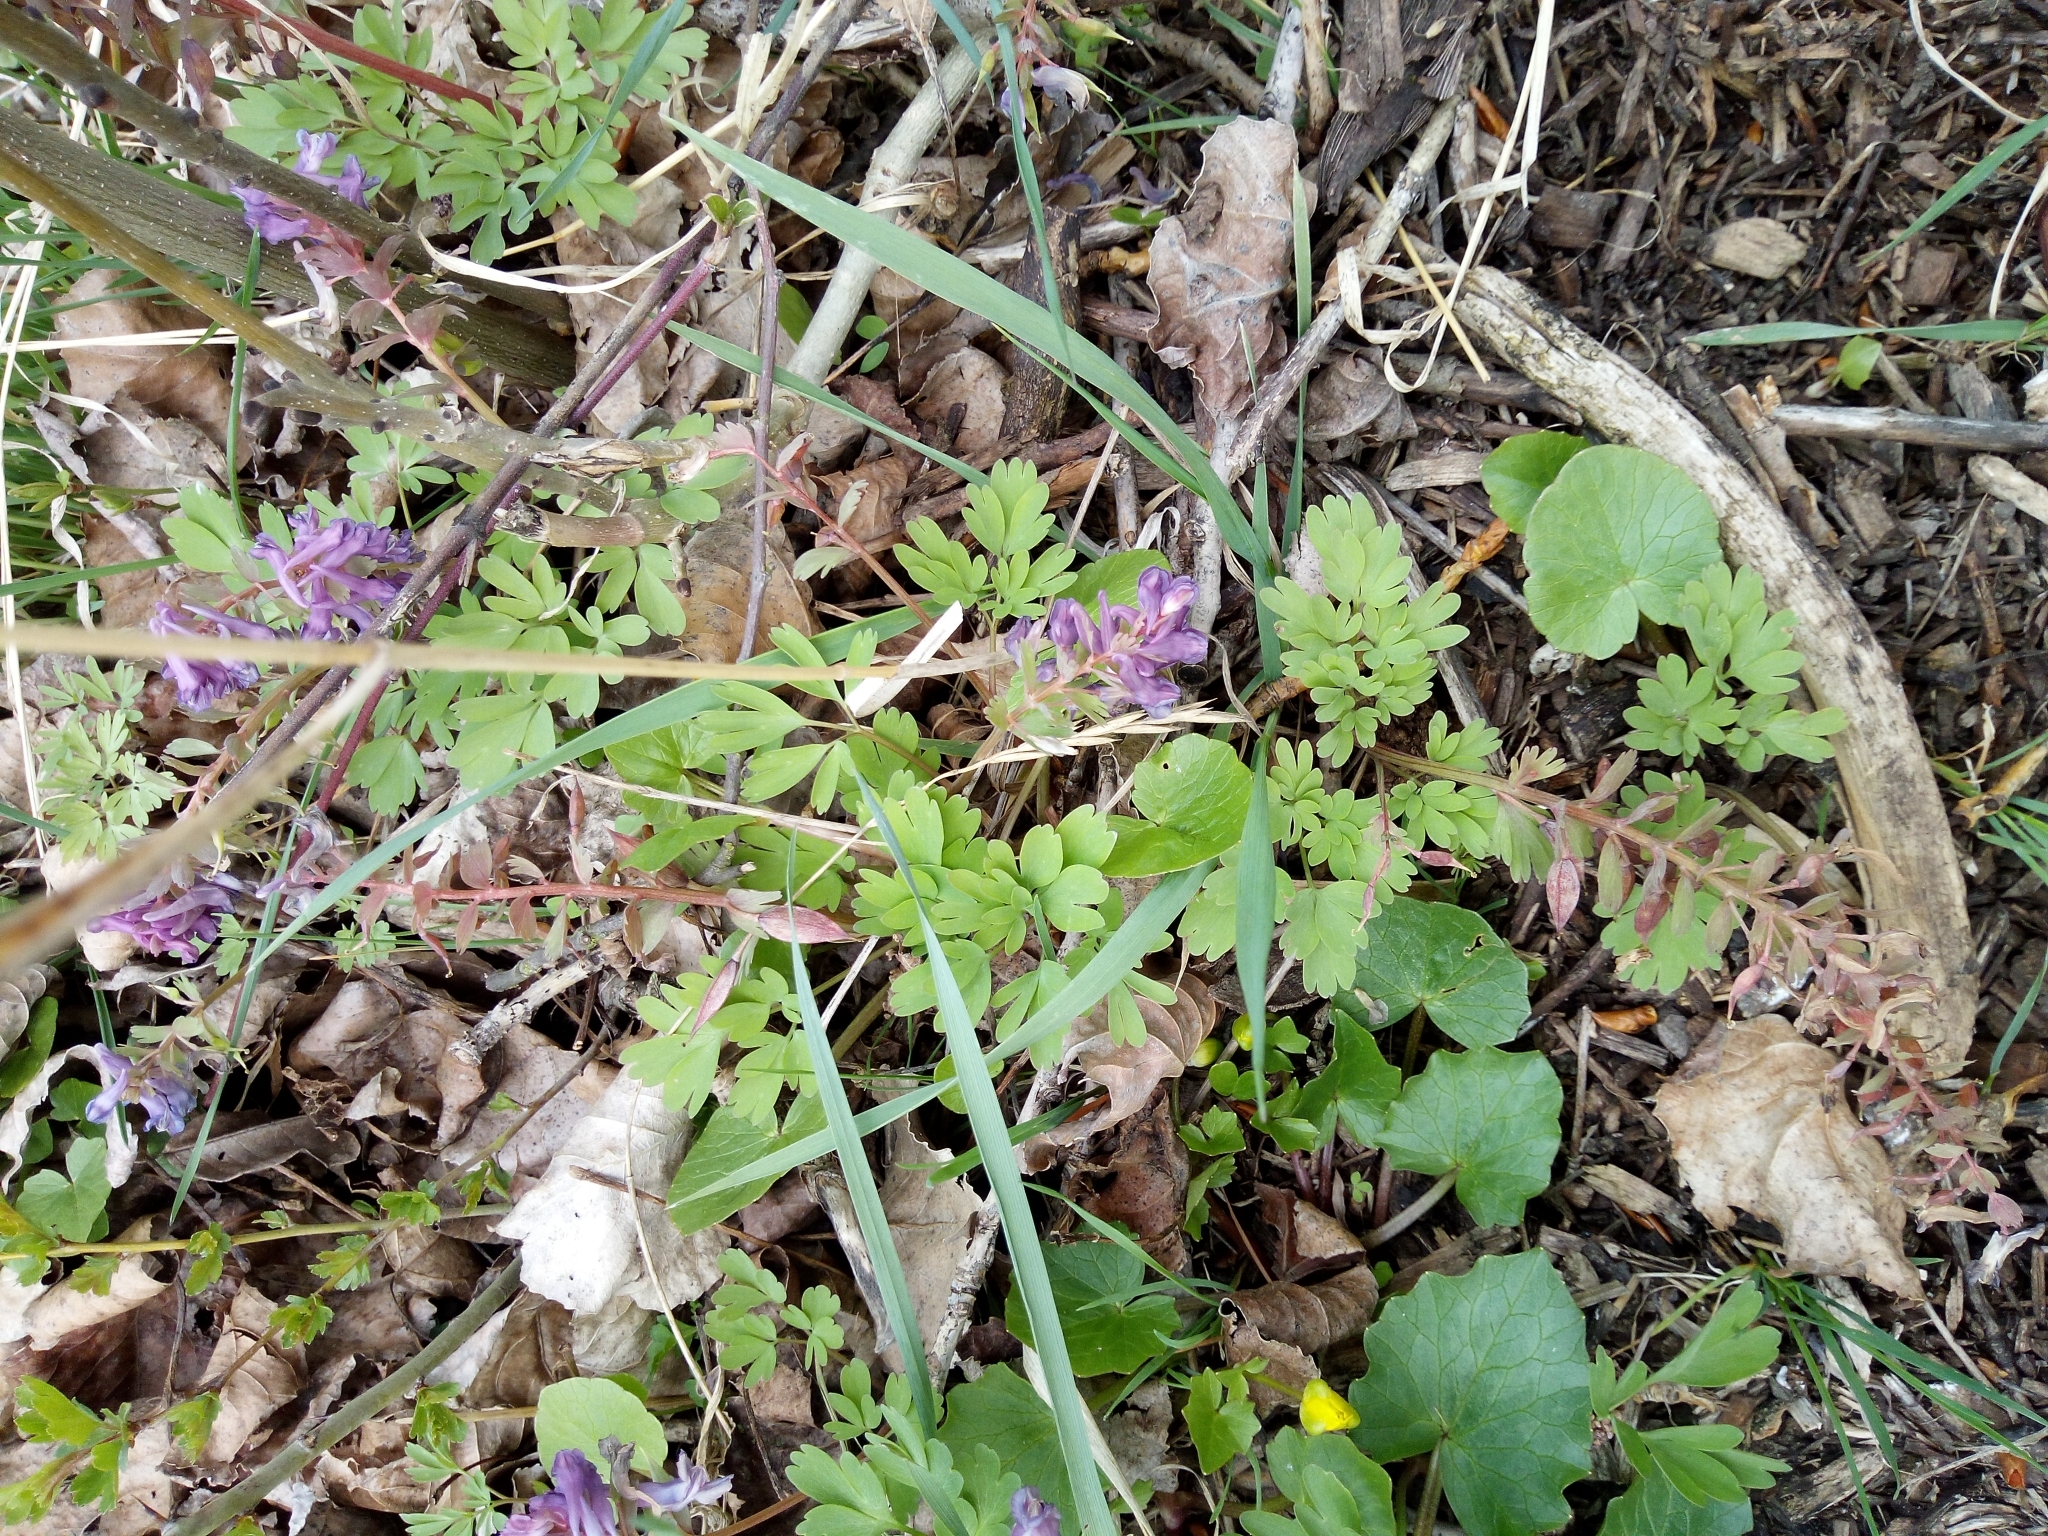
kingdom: Plantae
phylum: Tracheophyta
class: Magnoliopsida
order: Ranunculales
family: Papaveraceae
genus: Corydalis
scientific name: Corydalis solida
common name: Bird-in-a-bush
